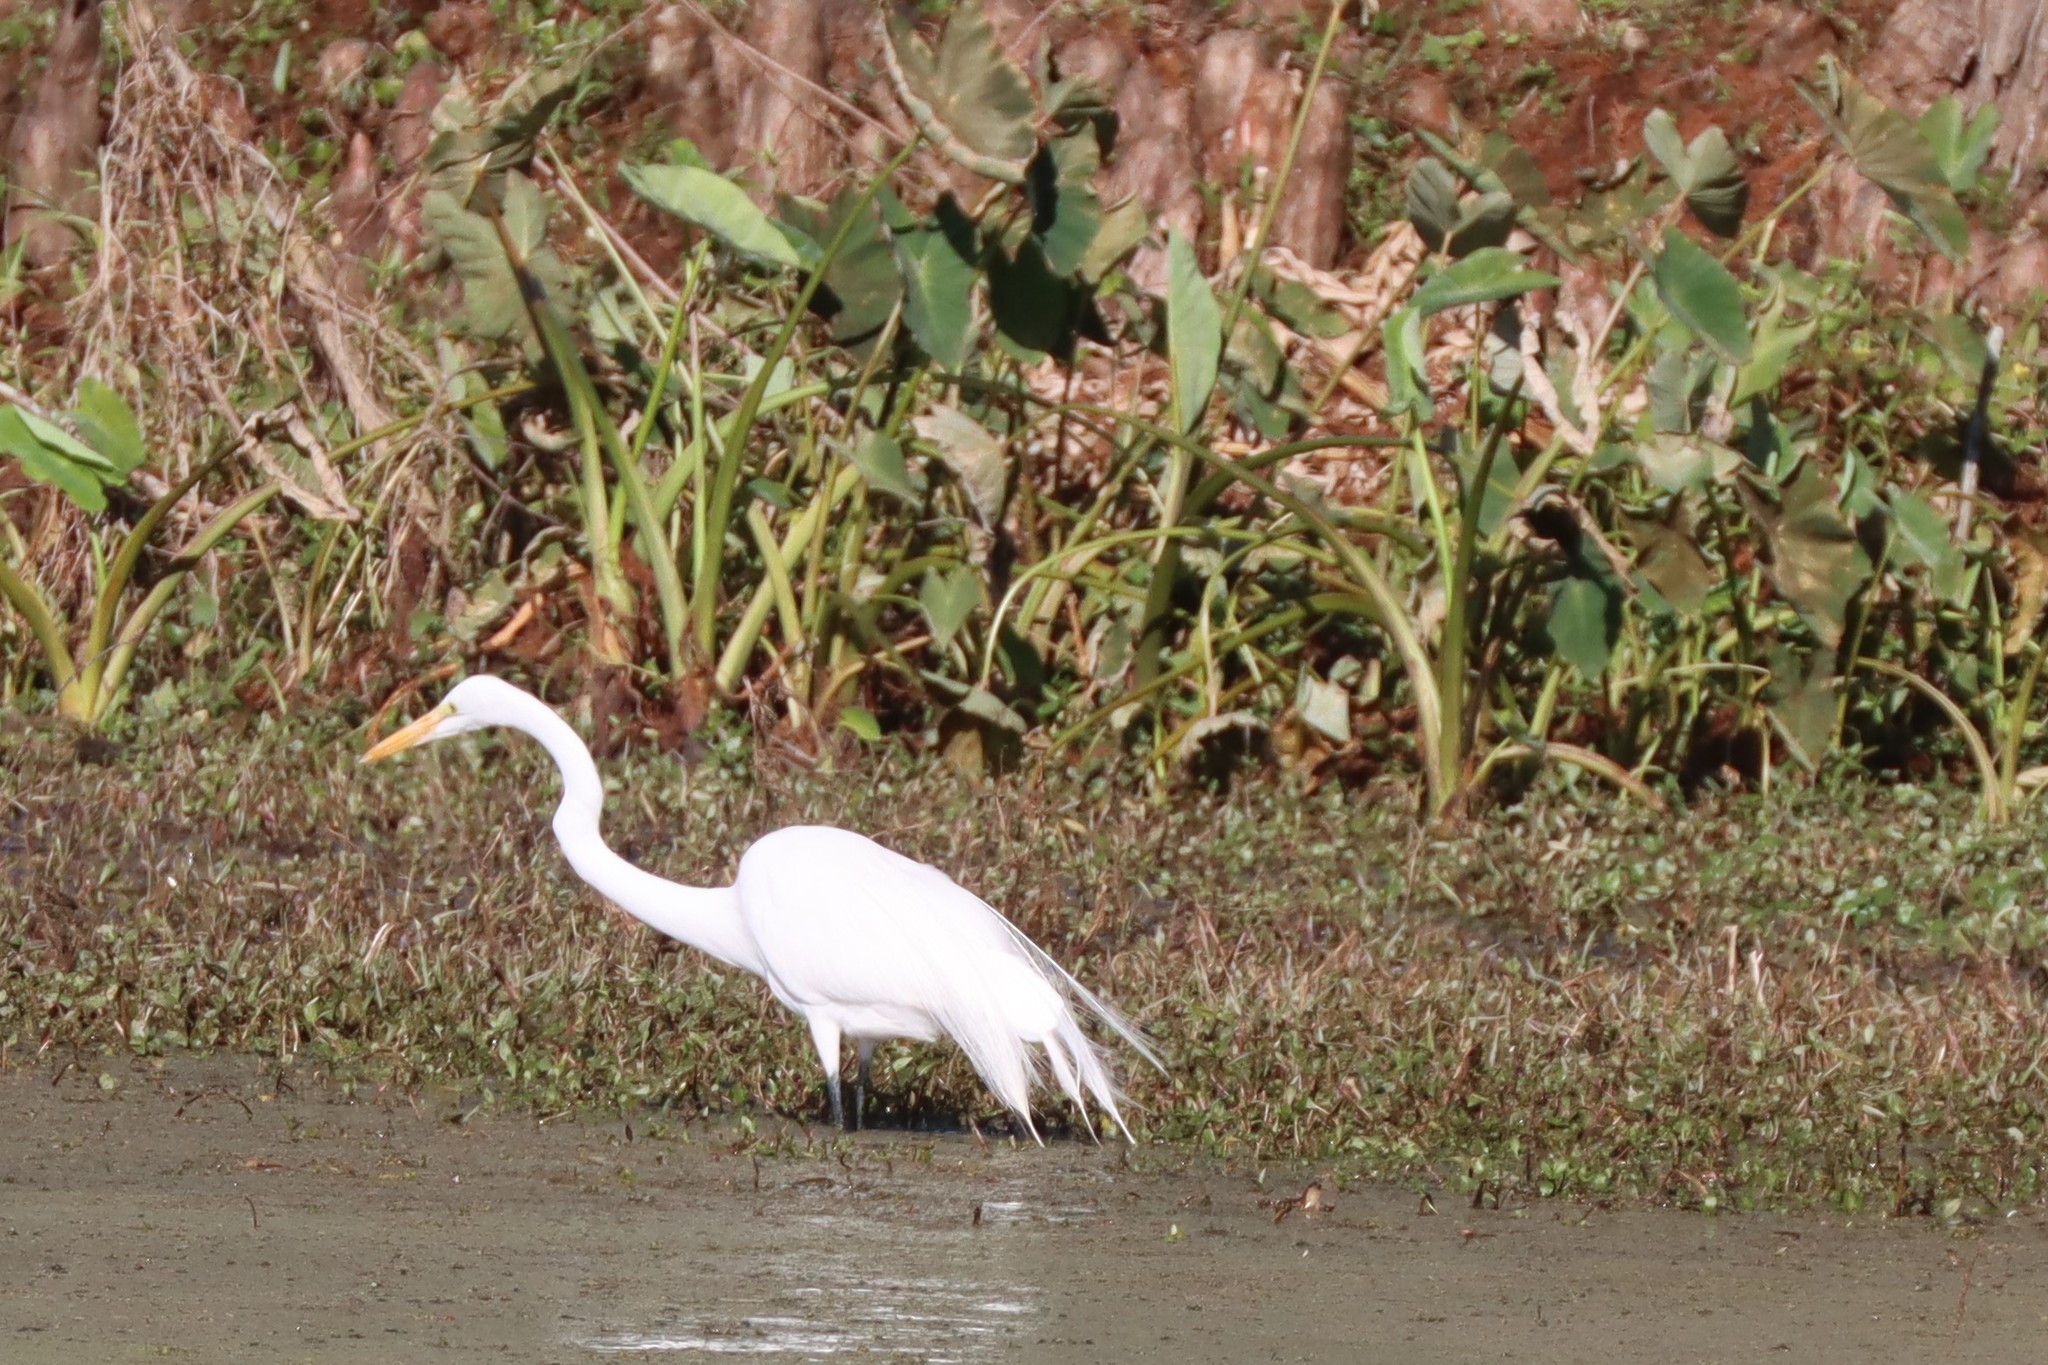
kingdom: Animalia
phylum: Chordata
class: Aves
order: Pelecaniformes
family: Ardeidae
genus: Ardea
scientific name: Ardea alba
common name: Great egret
